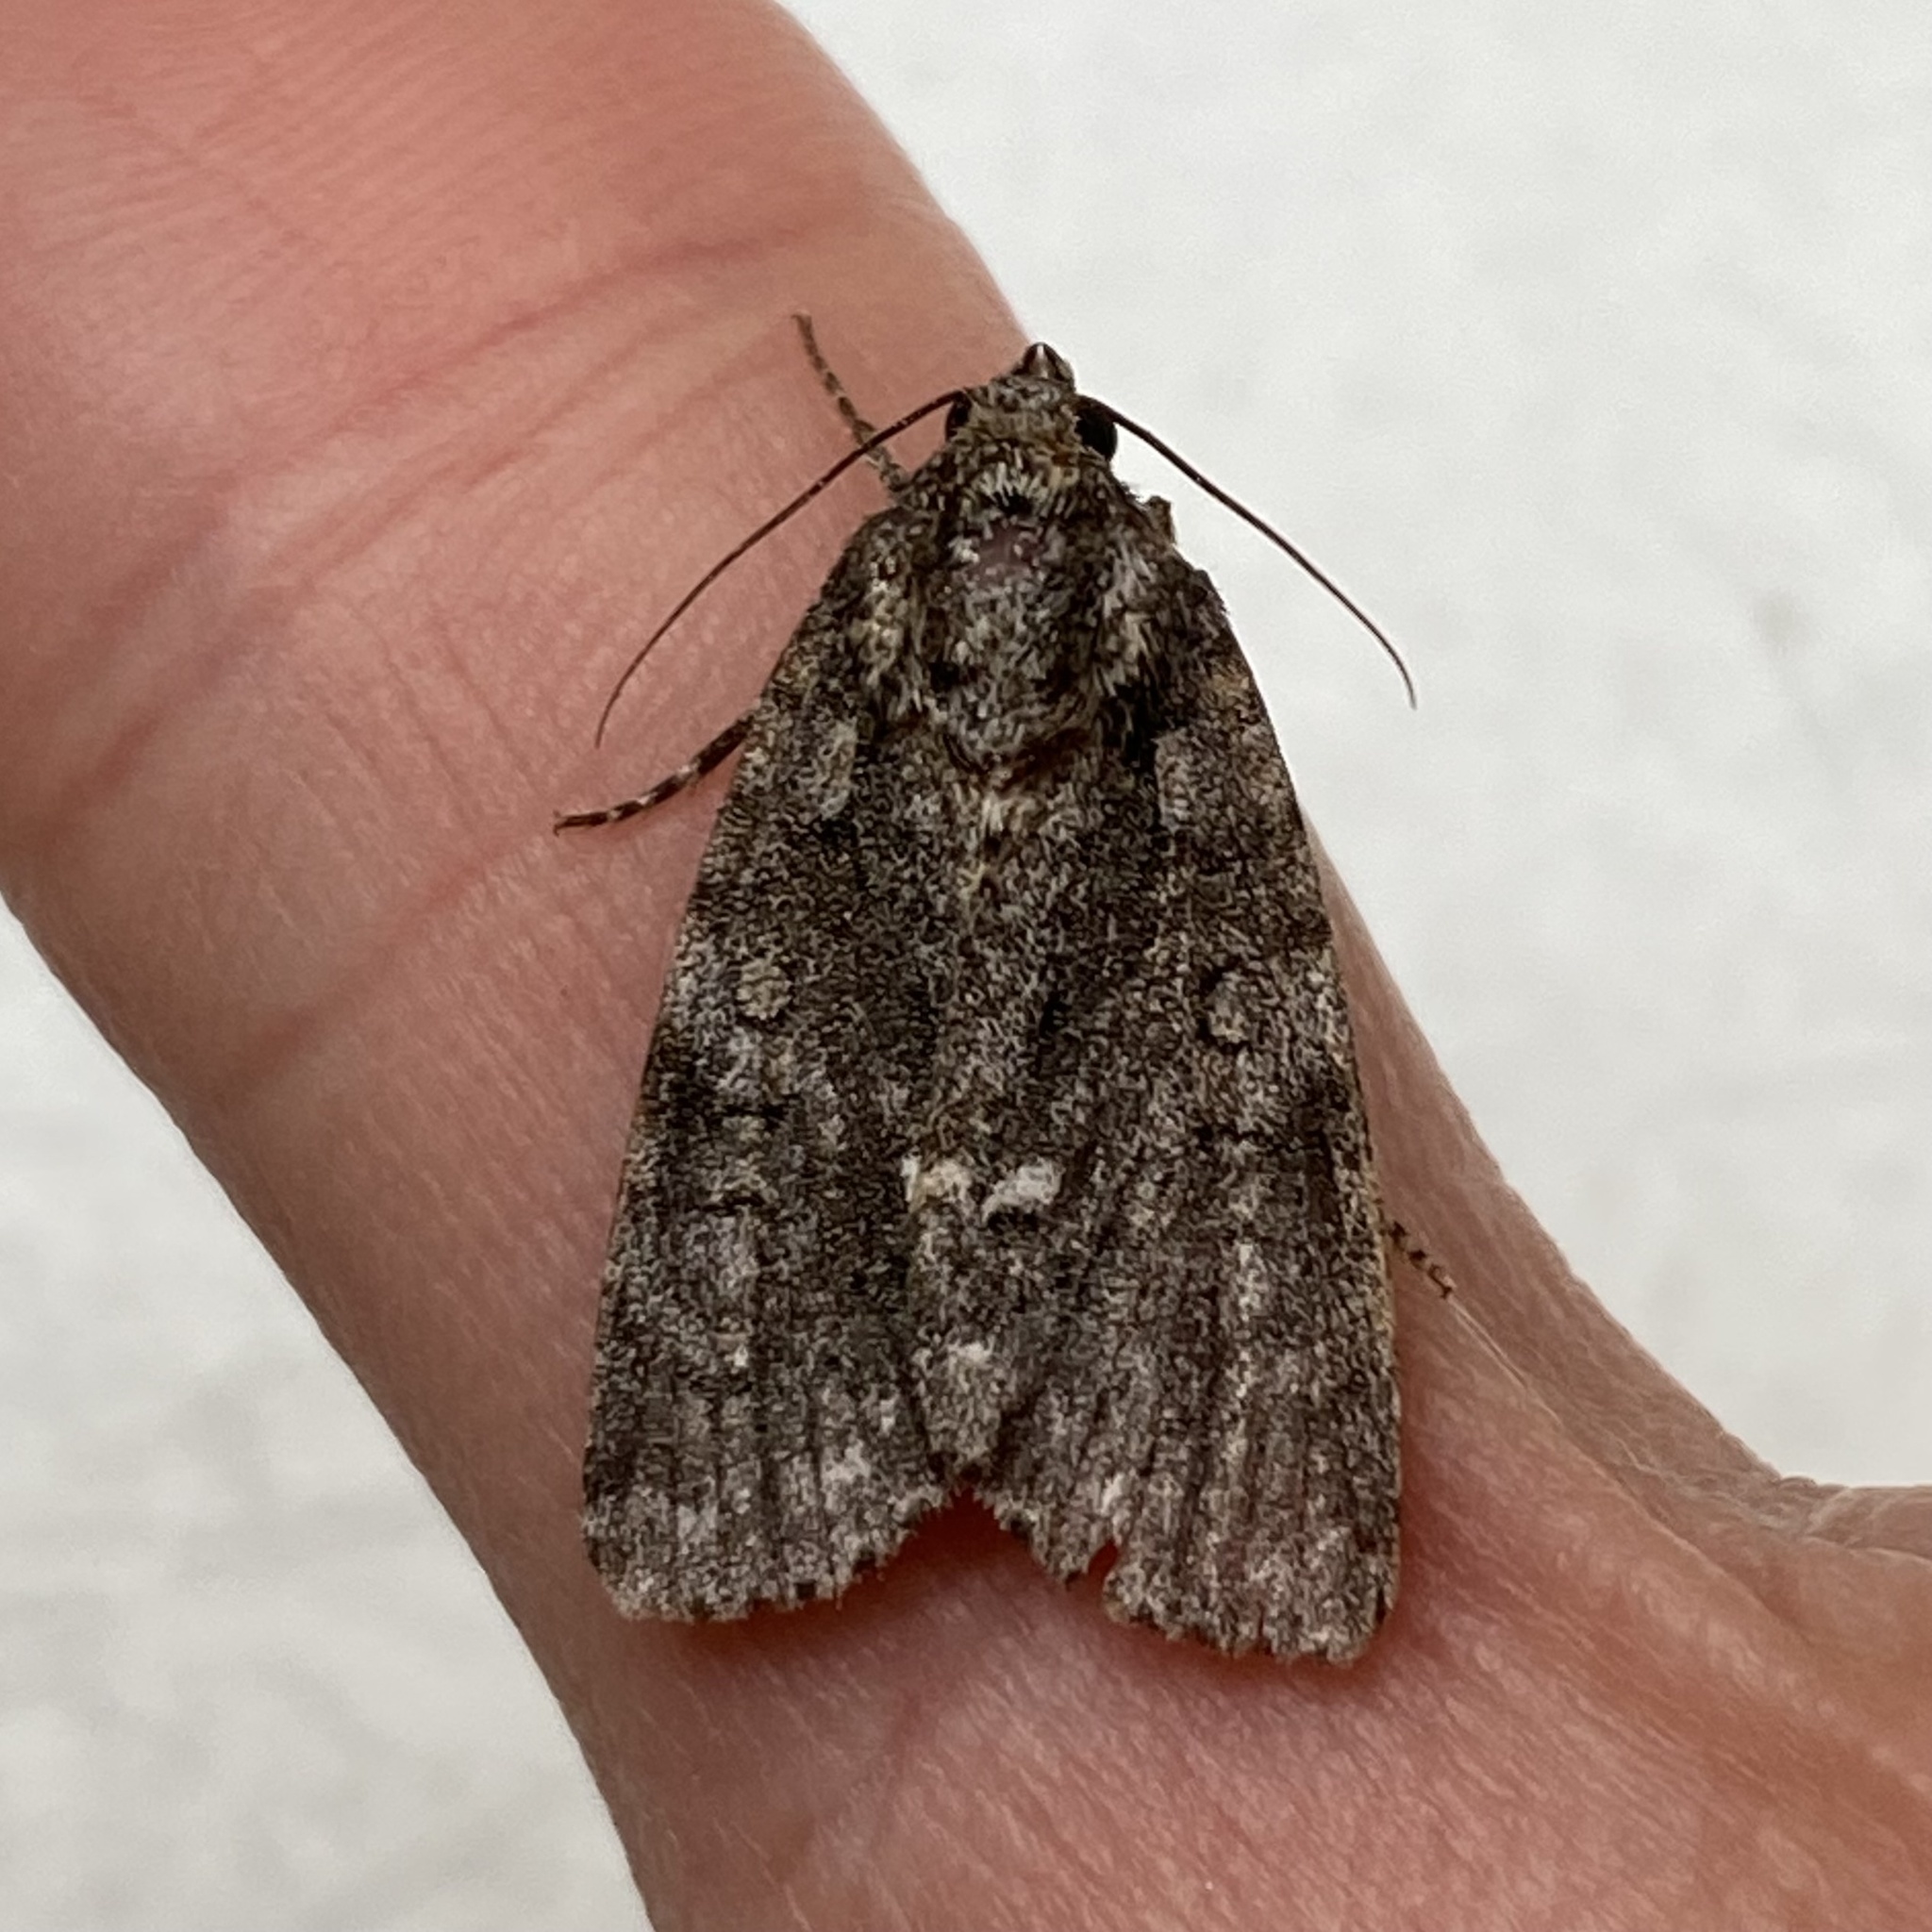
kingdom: Animalia
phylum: Arthropoda
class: Insecta
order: Lepidoptera
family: Noctuidae
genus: Acronicta
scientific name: Acronicta rumicis
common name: Knot grass
